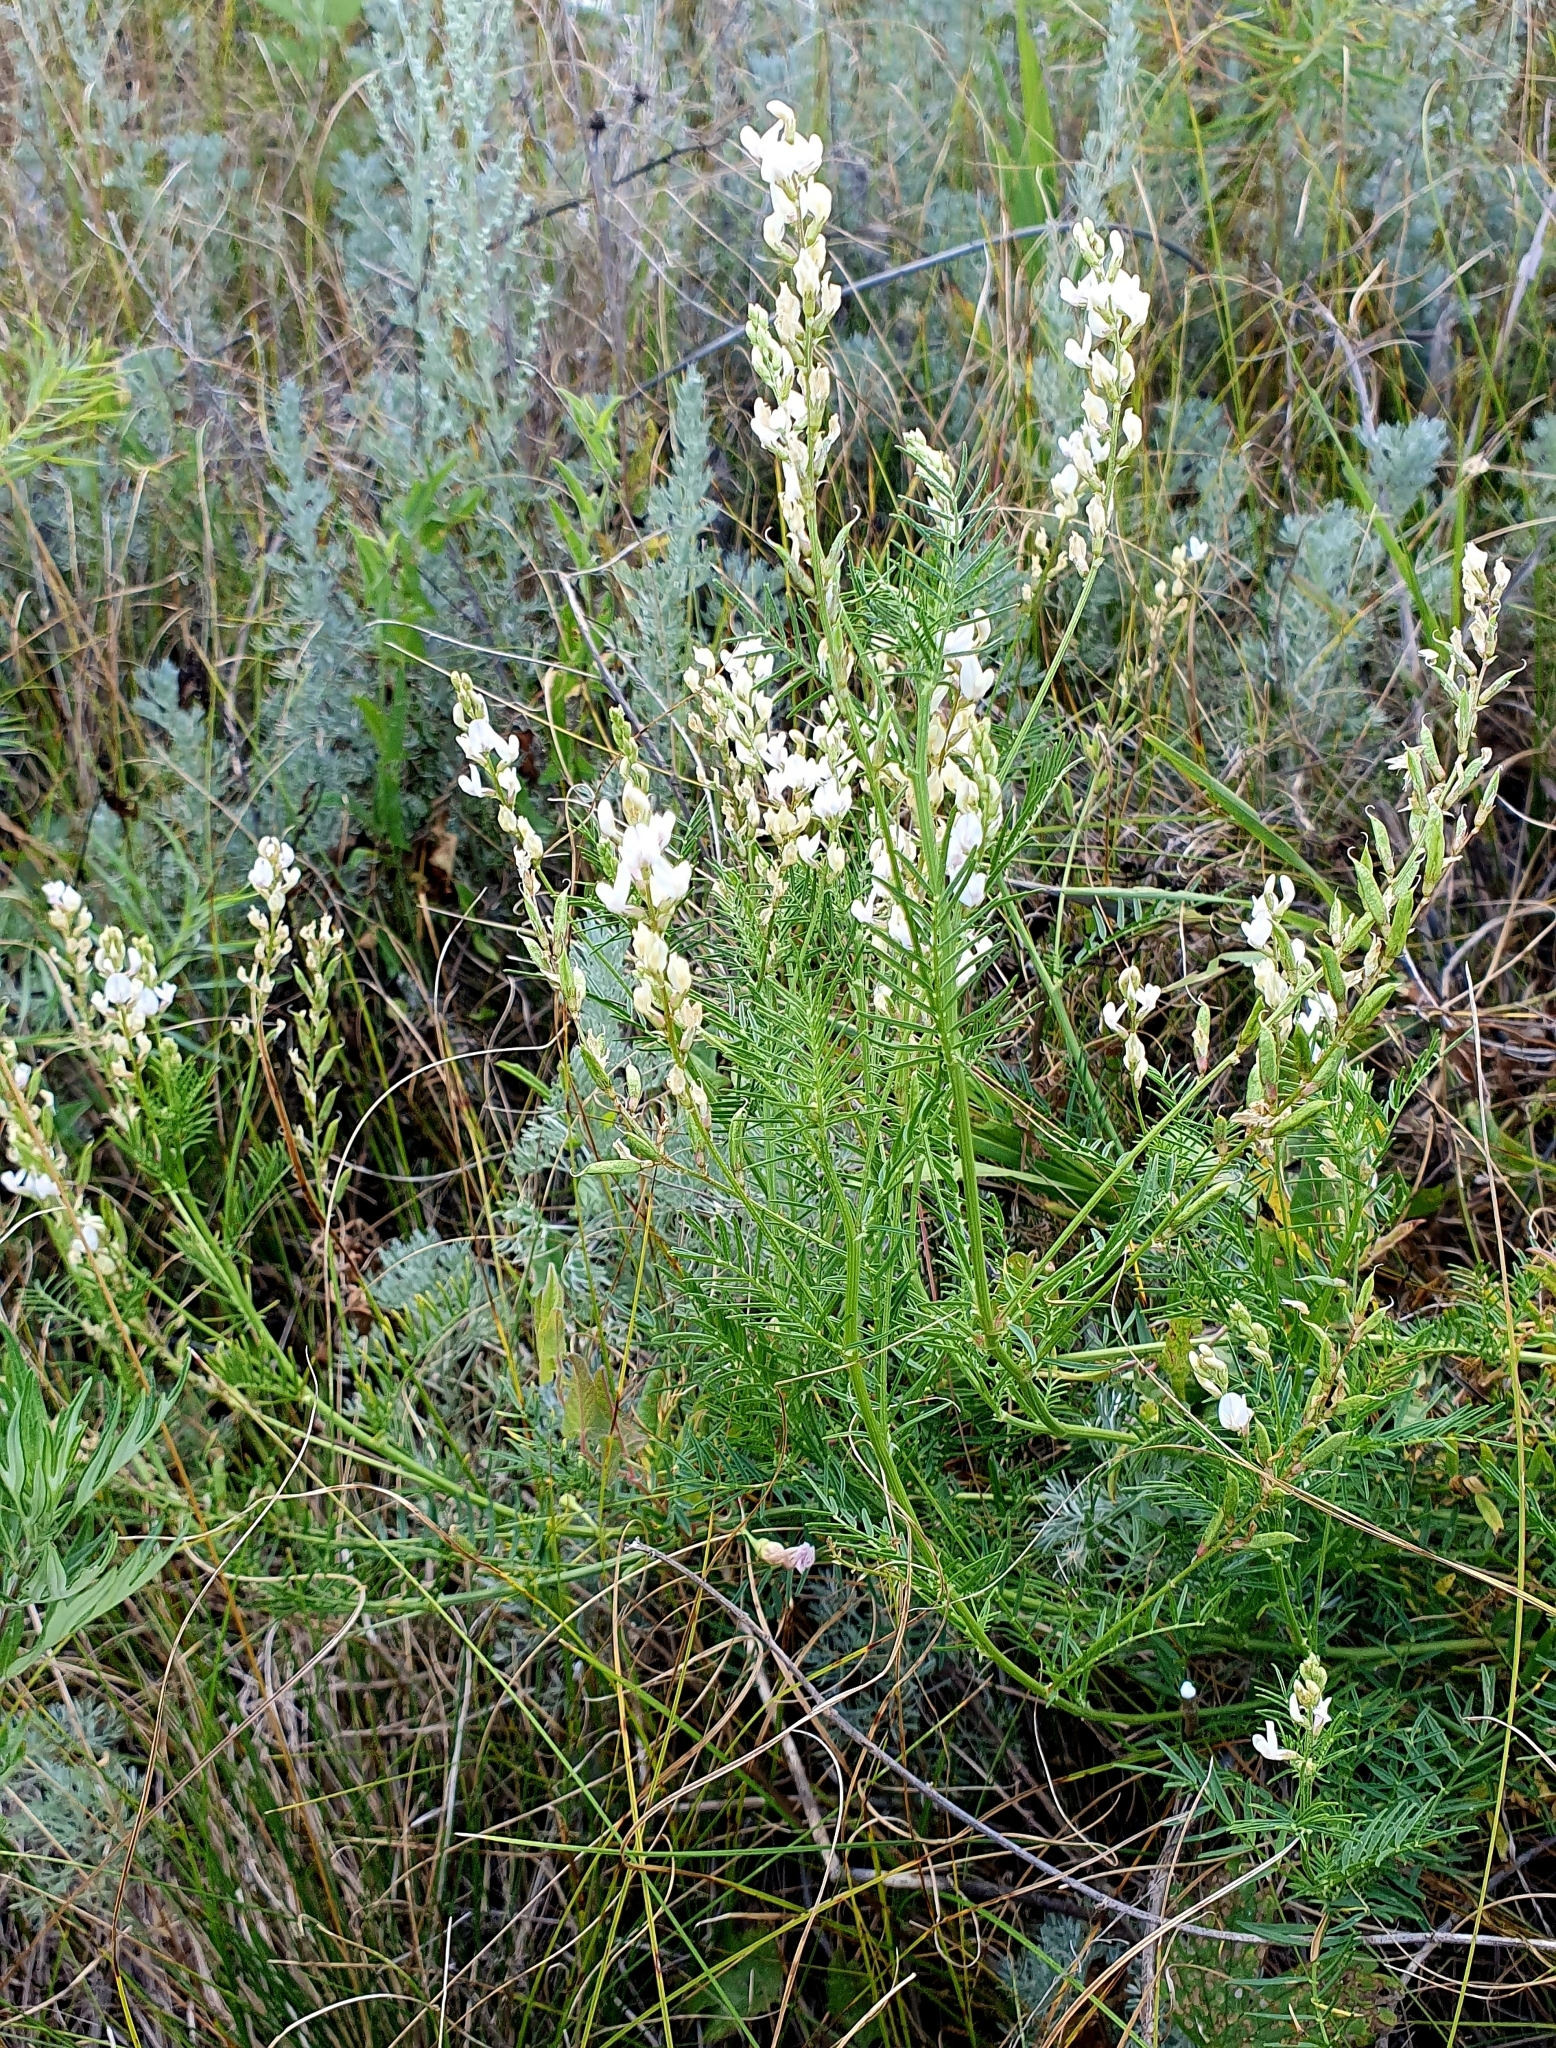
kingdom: Plantae
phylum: Tracheophyta
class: Magnoliopsida
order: Fabales
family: Fabaceae
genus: Astragalus
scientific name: Astragalus sulcatus
